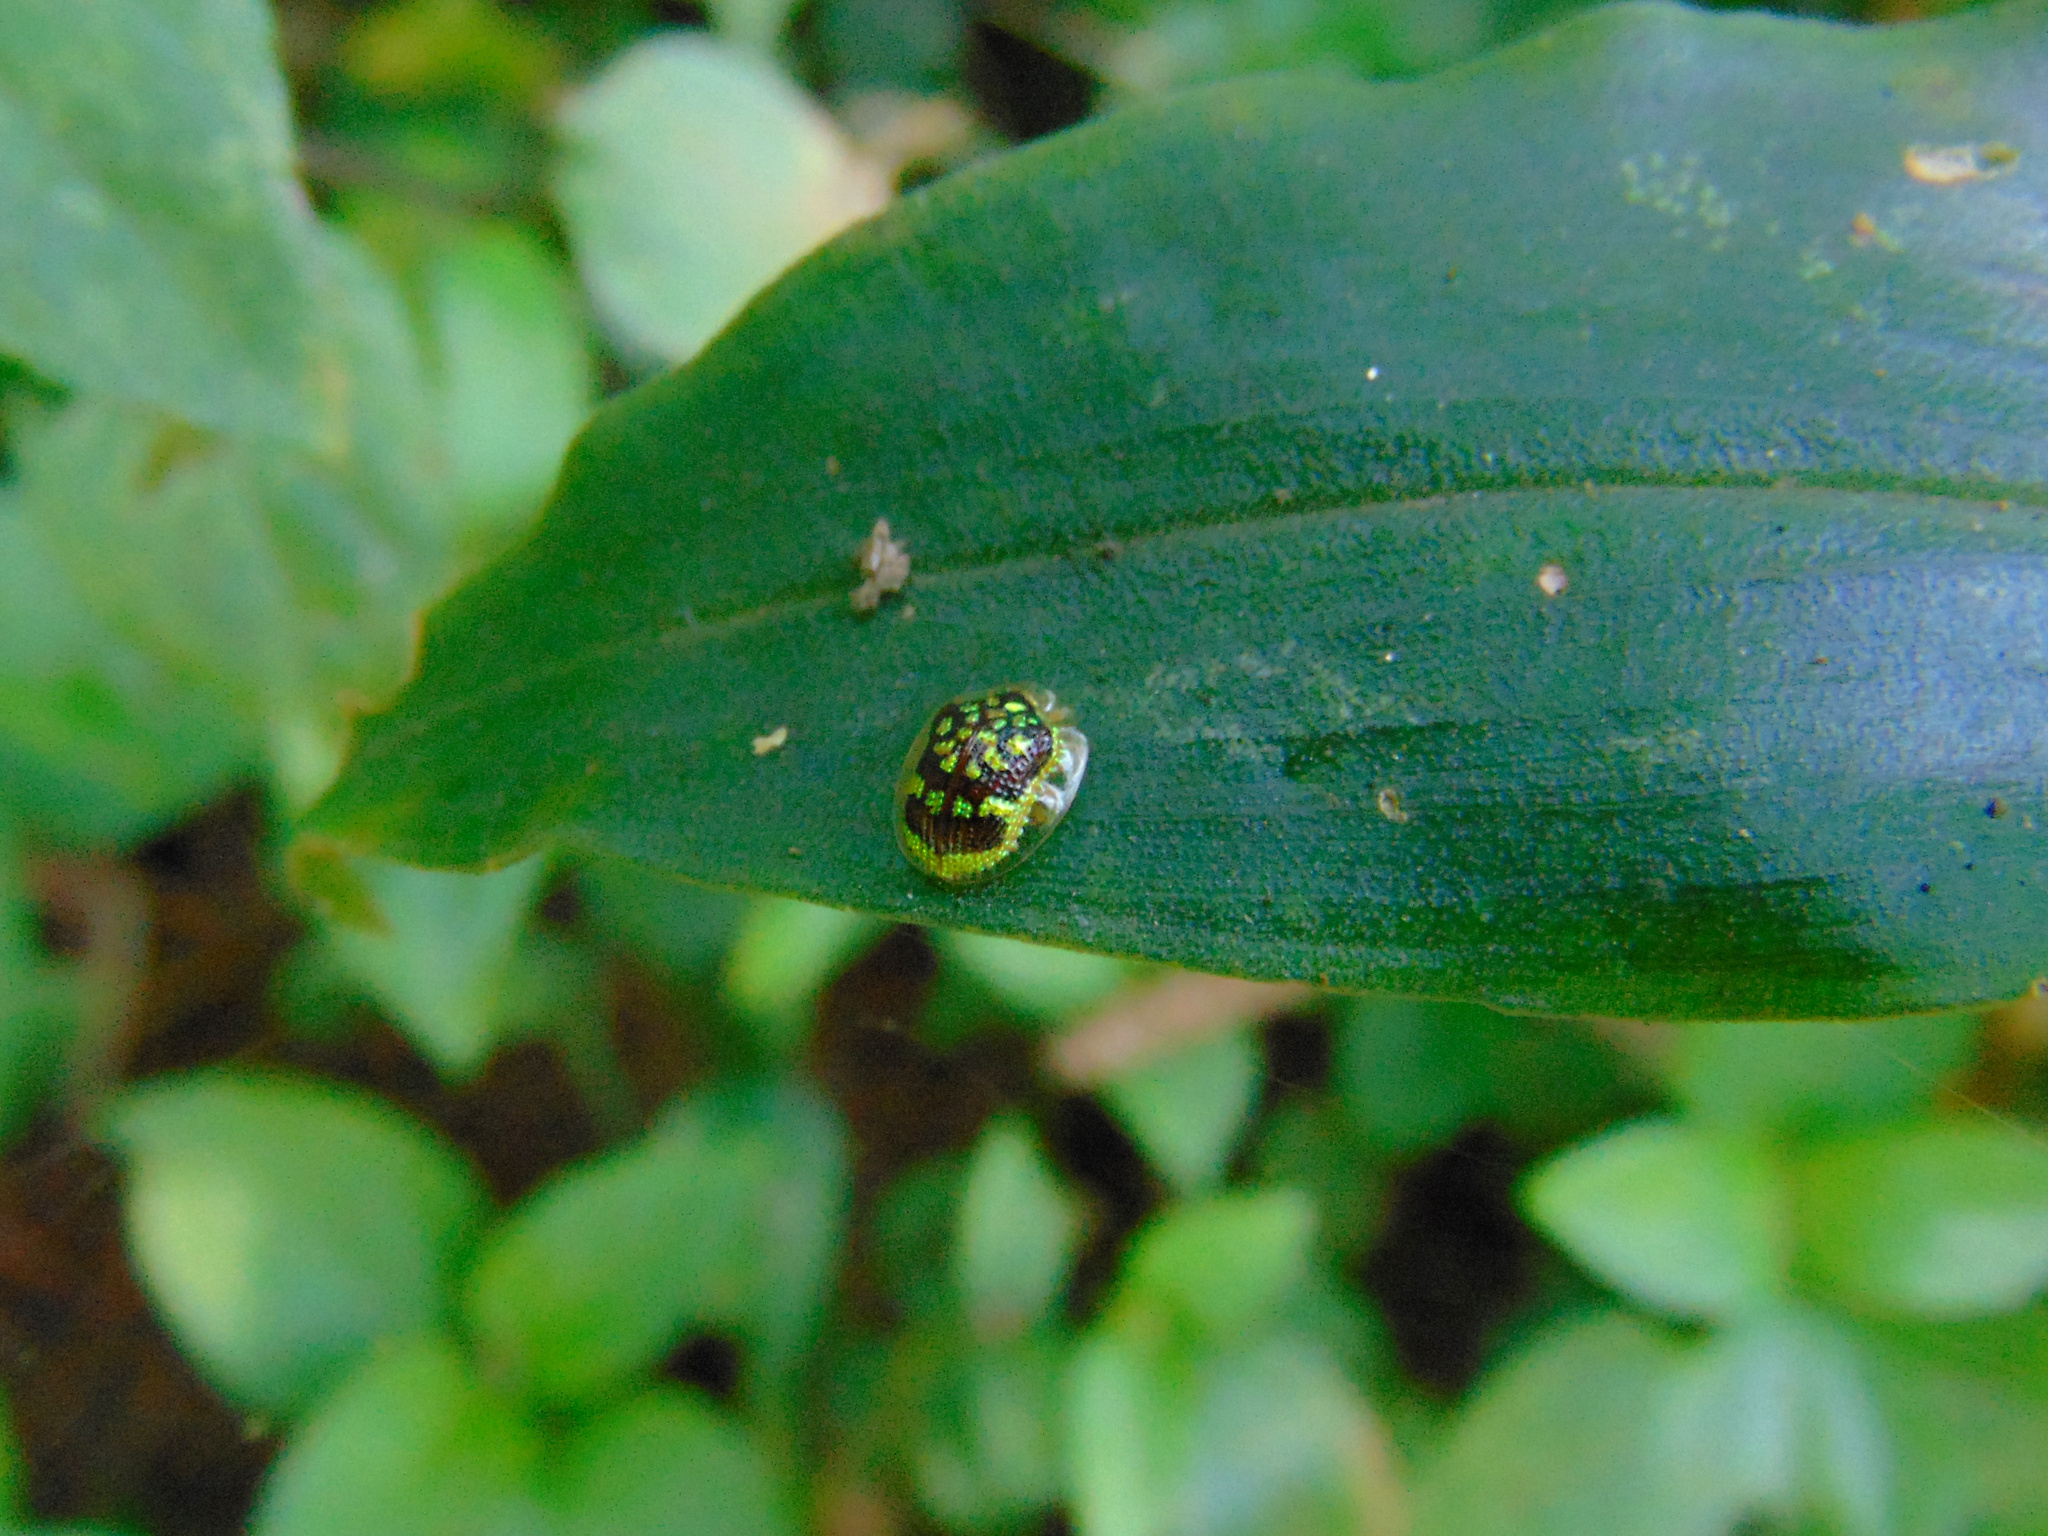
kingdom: Animalia
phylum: Arthropoda
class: Insecta
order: Coleoptera
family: Chrysomelidae
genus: Microctenochira
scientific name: Microctenochira brasiliensis
